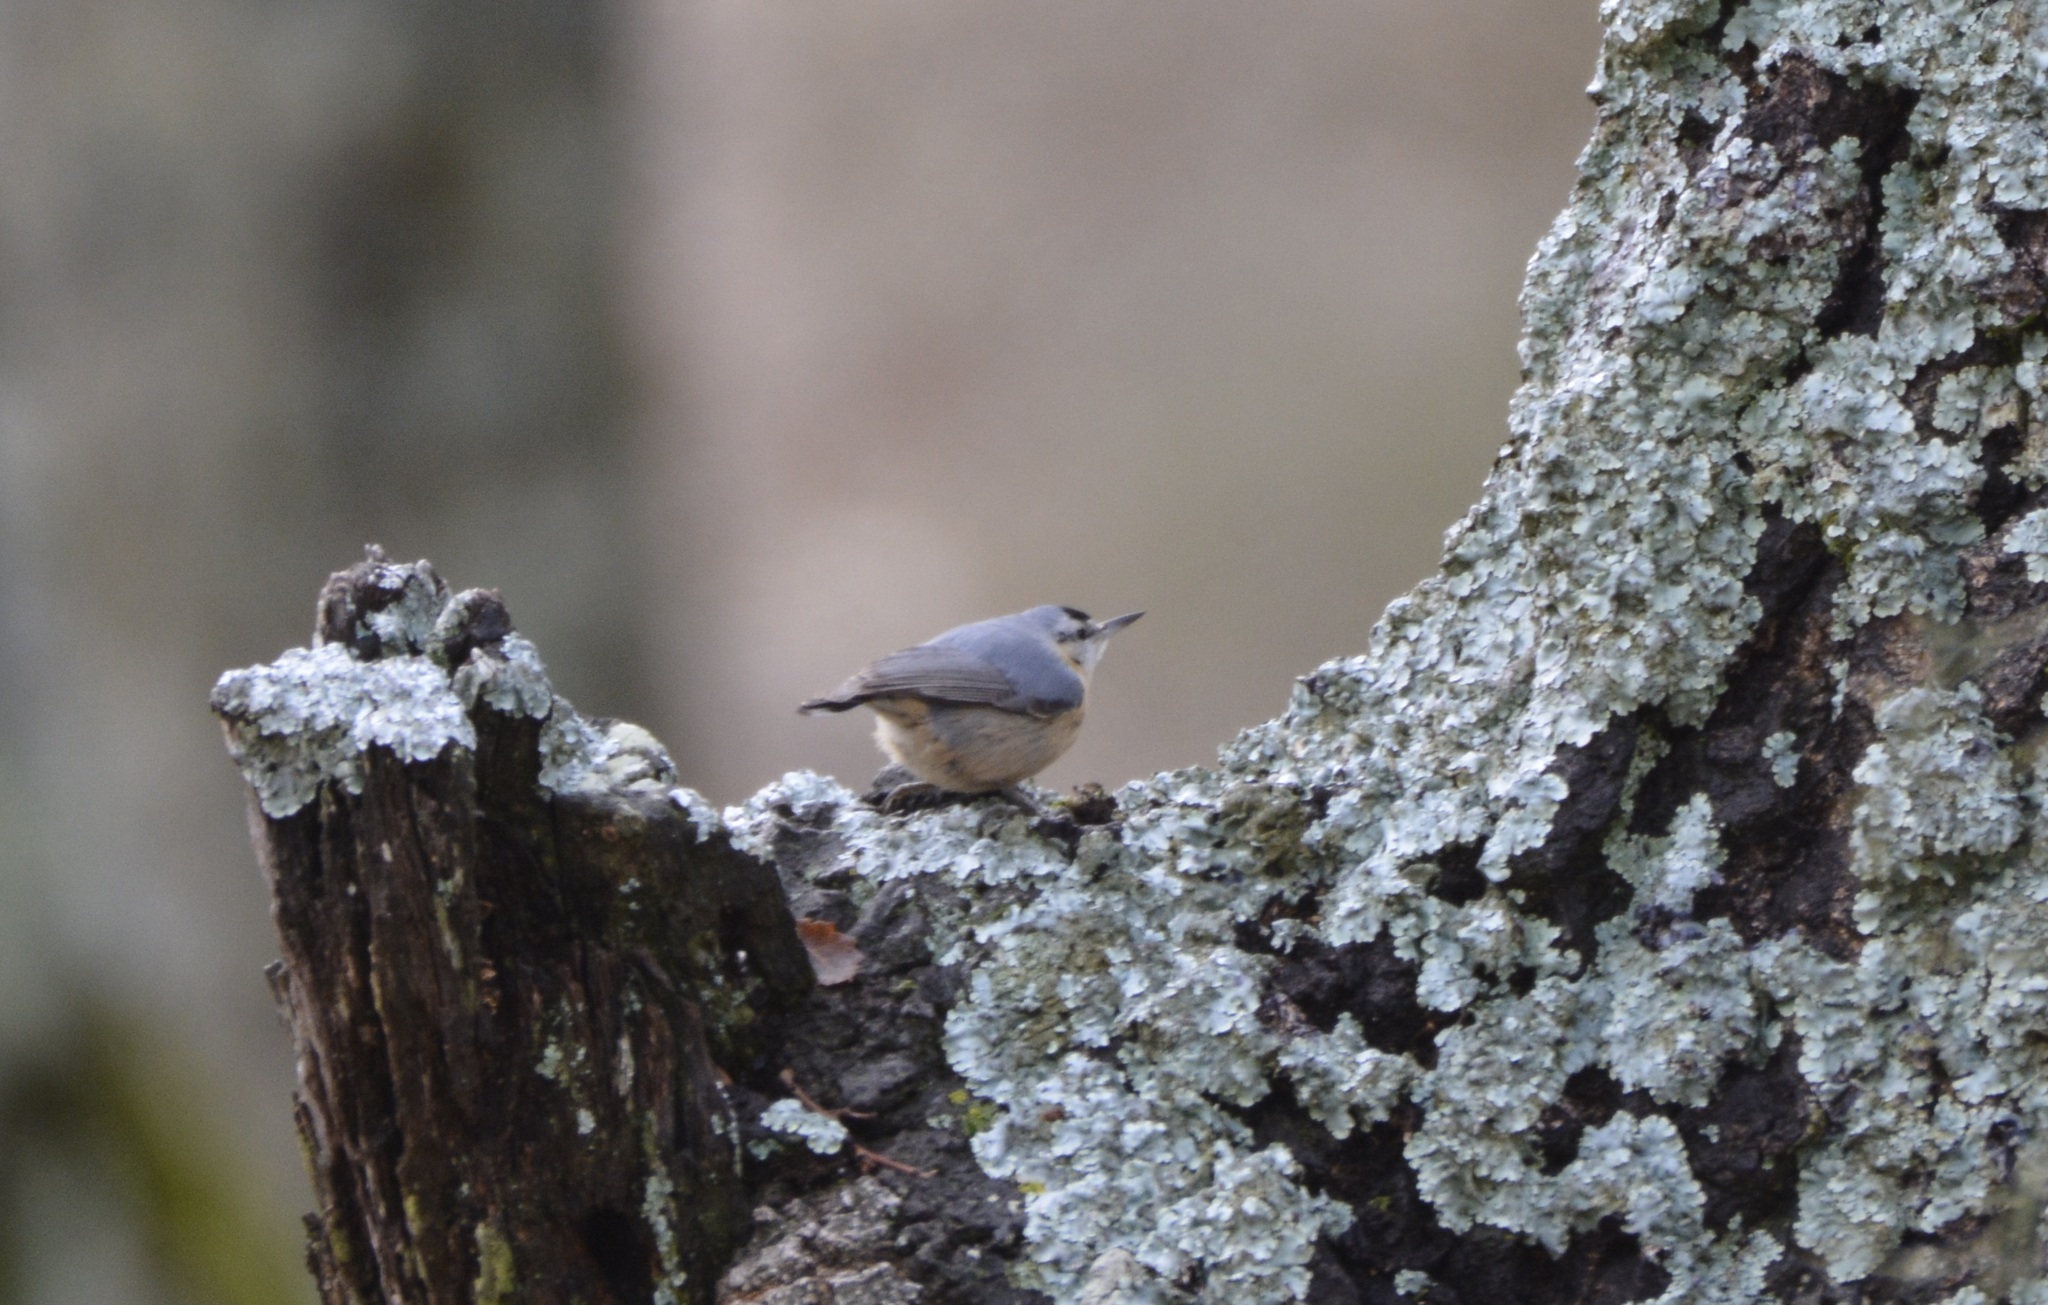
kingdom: Animalia
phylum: Chordata
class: Aves
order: Passeriformes
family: Sittidae
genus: Sitta
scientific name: Sitta ledanti
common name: Algerian nuthatch
